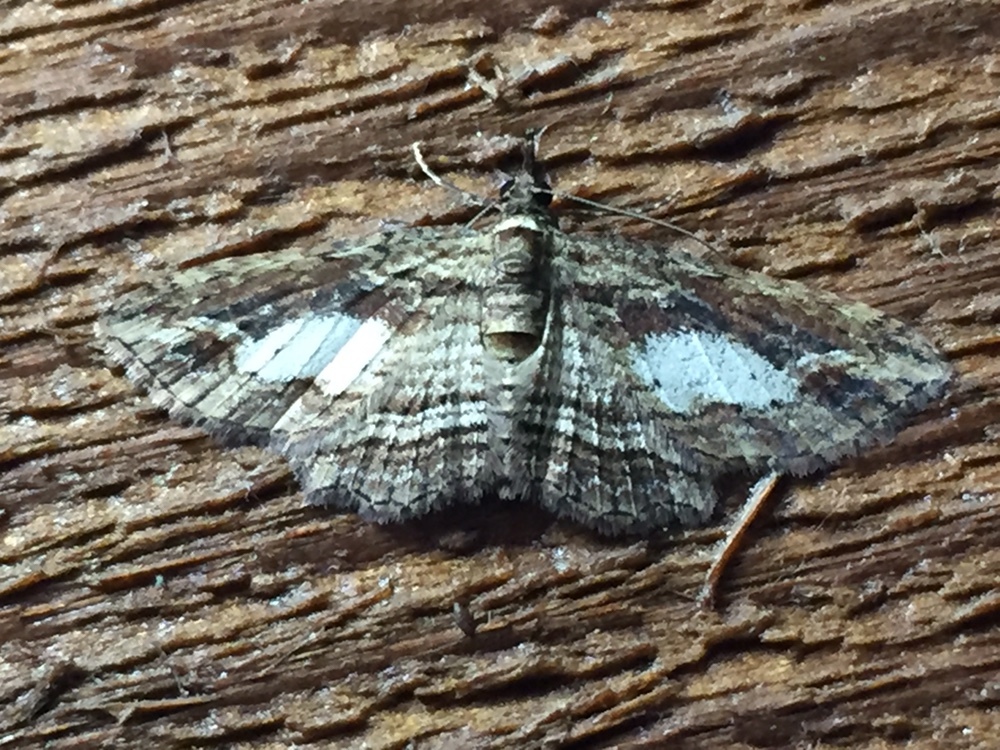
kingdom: Animalia
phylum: Arthropoda
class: Insecta
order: Lepidoptera
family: Geometridae
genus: Chloroclystis
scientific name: Chloroclystis filata
